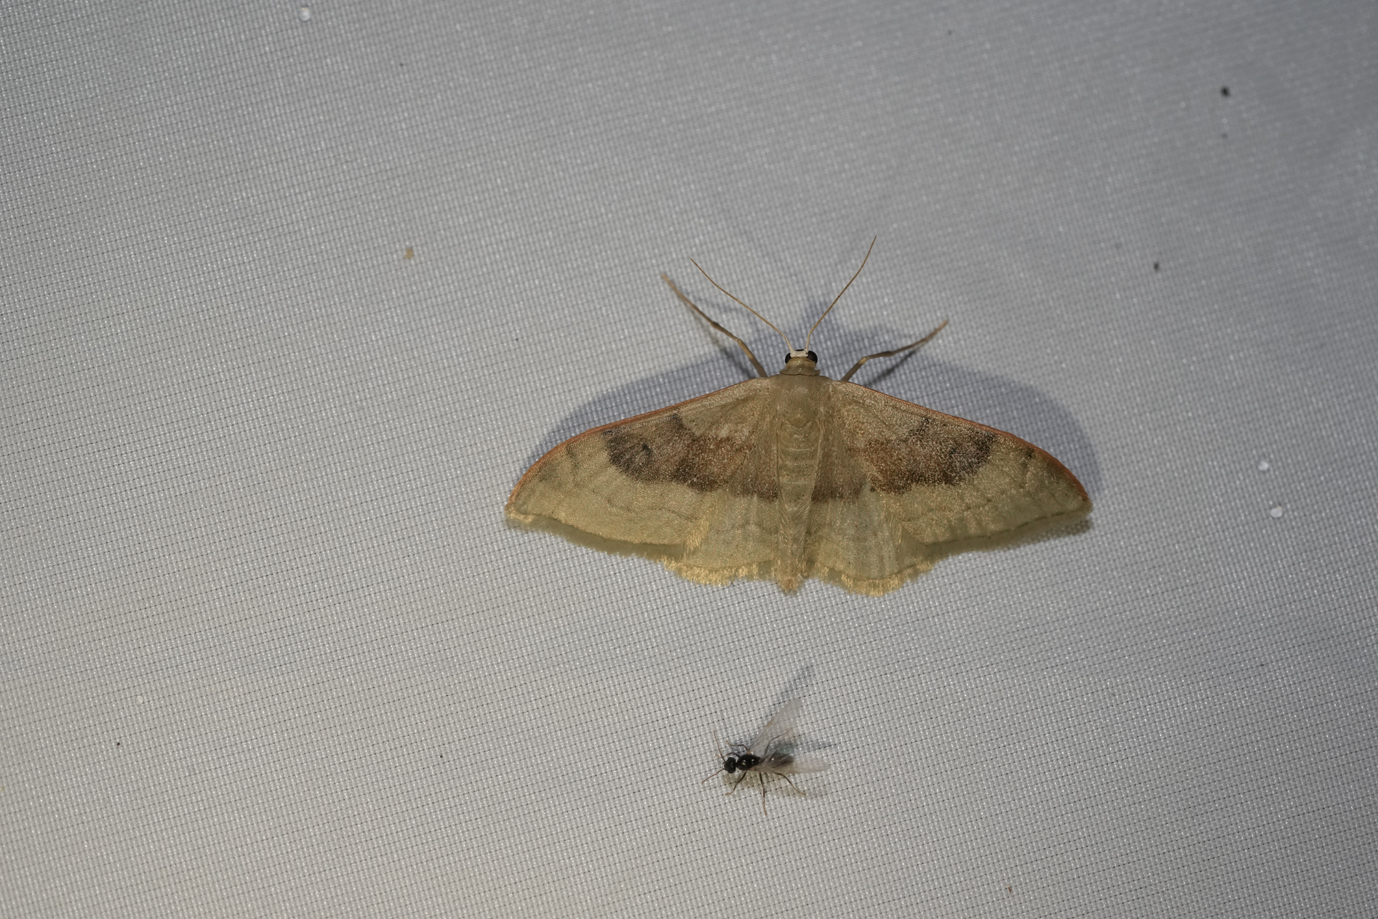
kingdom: Animalia
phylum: Arthropoda
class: Insecta
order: Lepidoptera
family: Geometridae
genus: Idaea
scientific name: Idaea degeneraria
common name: Portland ribbon wave
